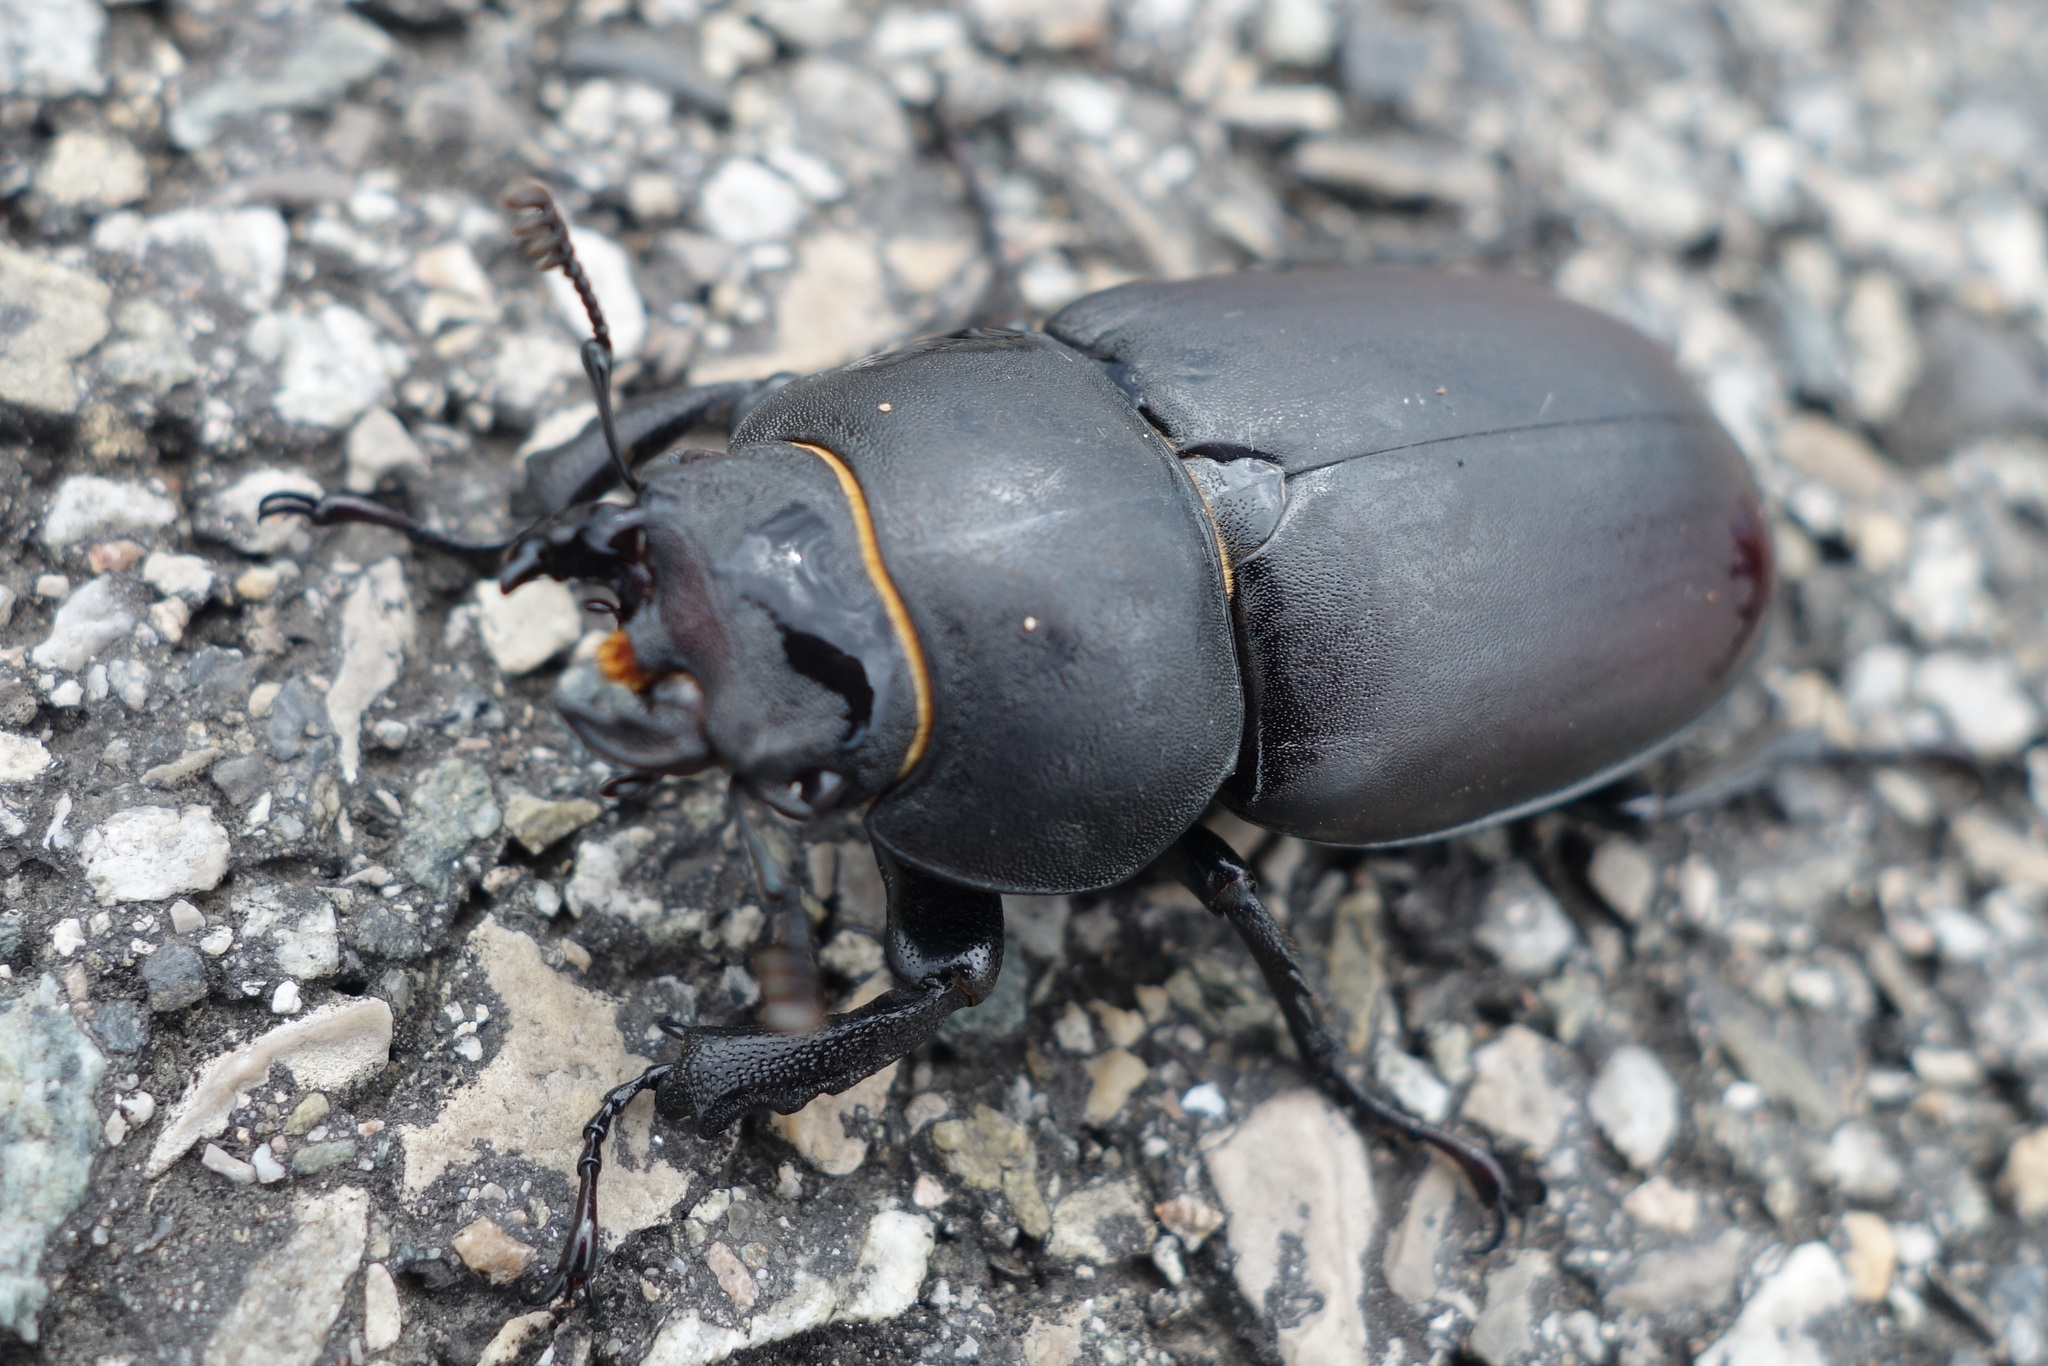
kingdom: Animalia
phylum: Arthropoda
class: Insecta
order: Coleoptera
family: Lucanidae
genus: Lucanus
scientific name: Lucanus cervus
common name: Stag beetle
